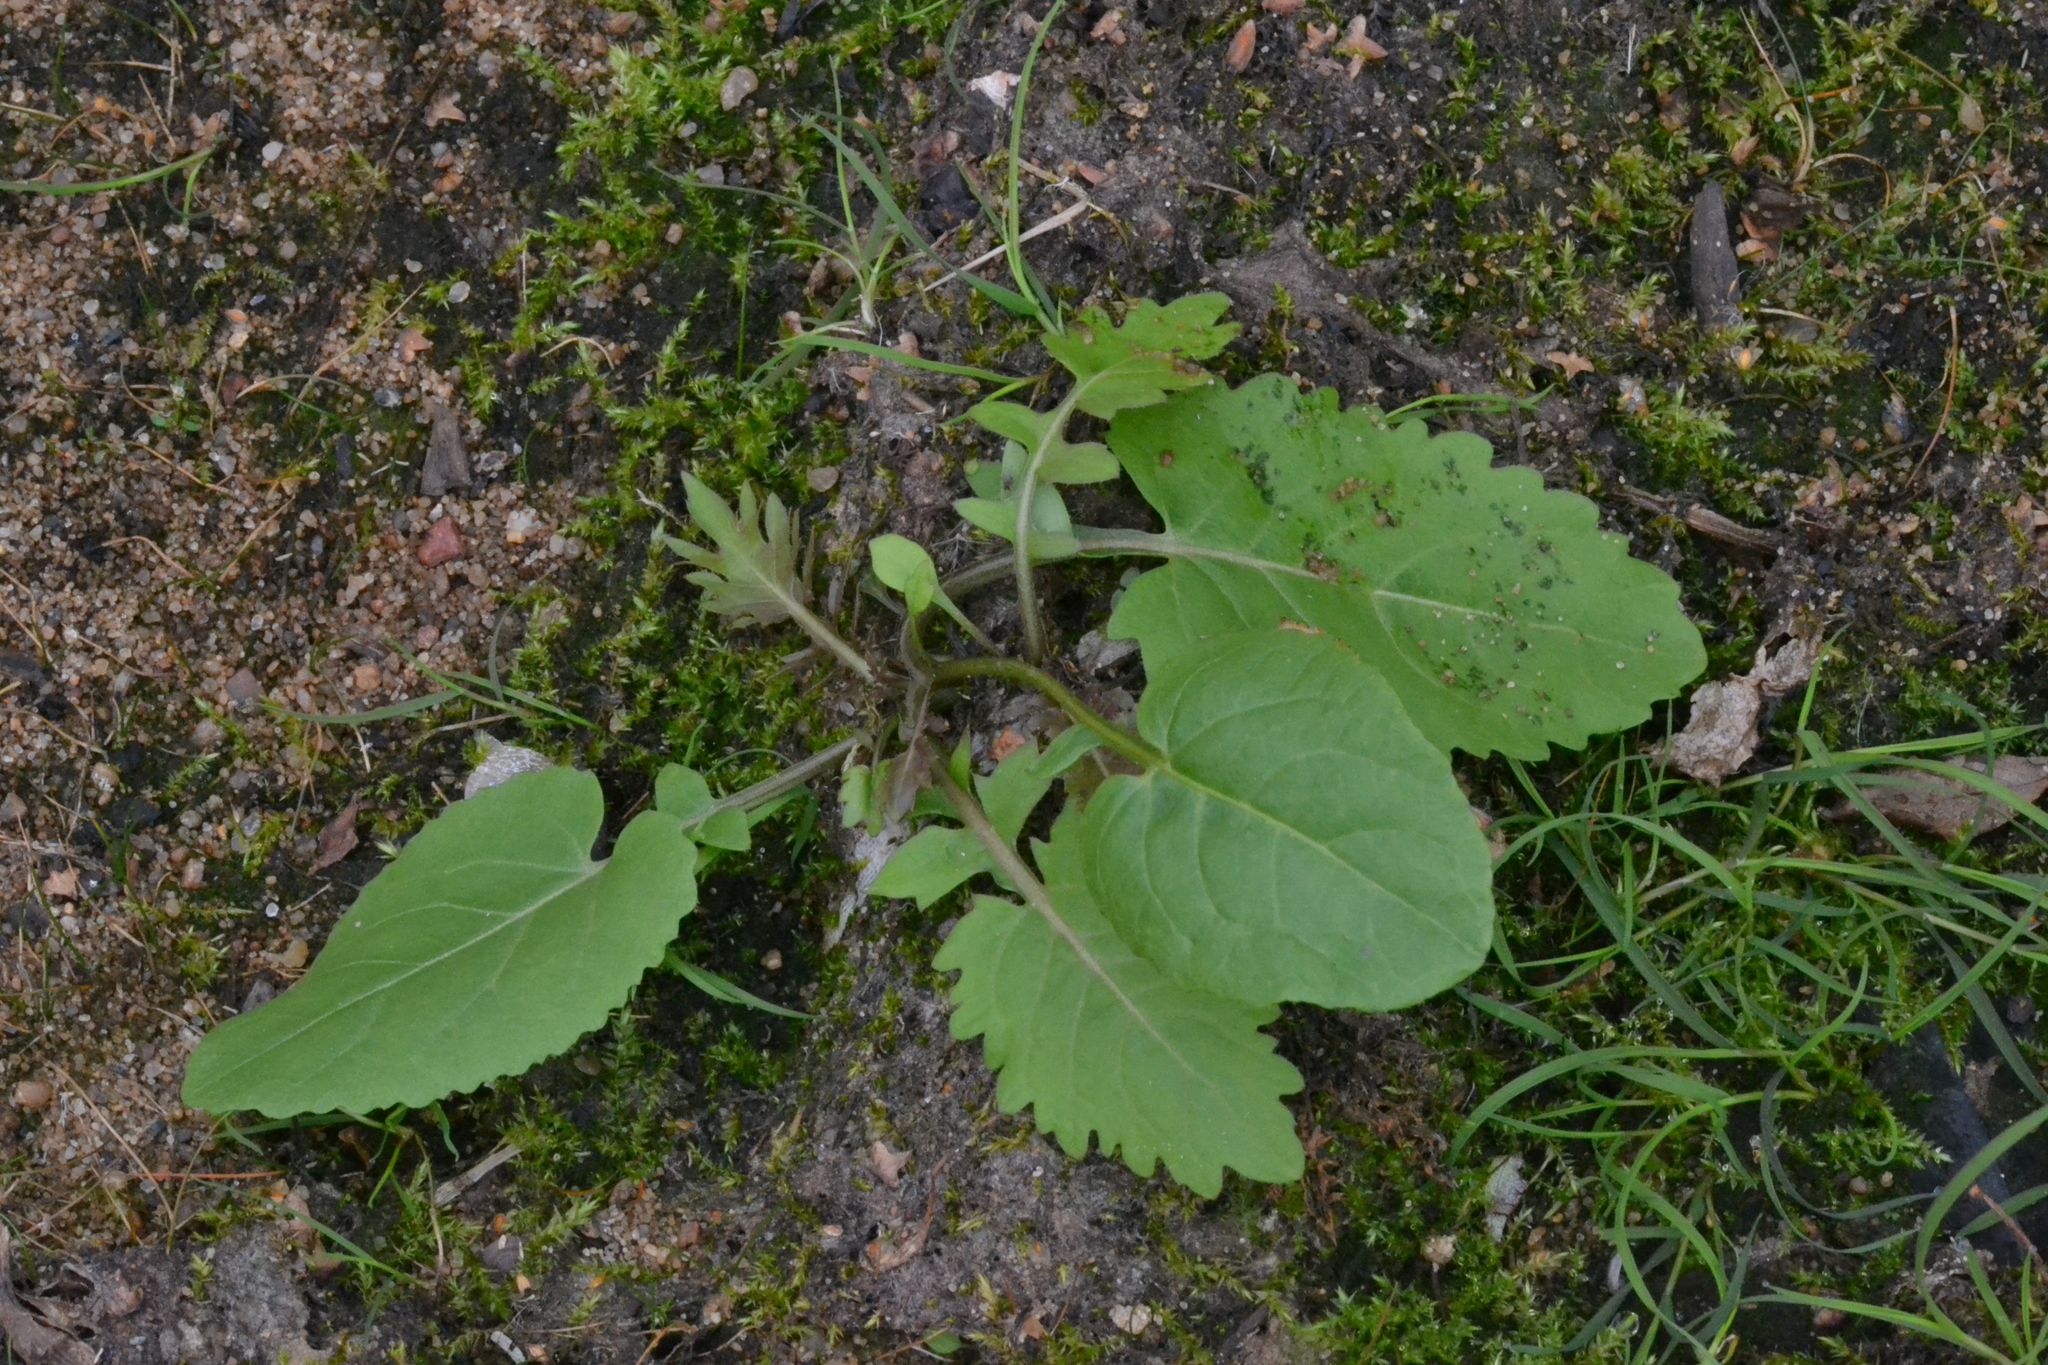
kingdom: Plantae
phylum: Tracheophyta
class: Magnoliopsida
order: Brassicales
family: Brassicaceae
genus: Rorippa
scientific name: Rorippa amphibia
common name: Great yellow-cress
